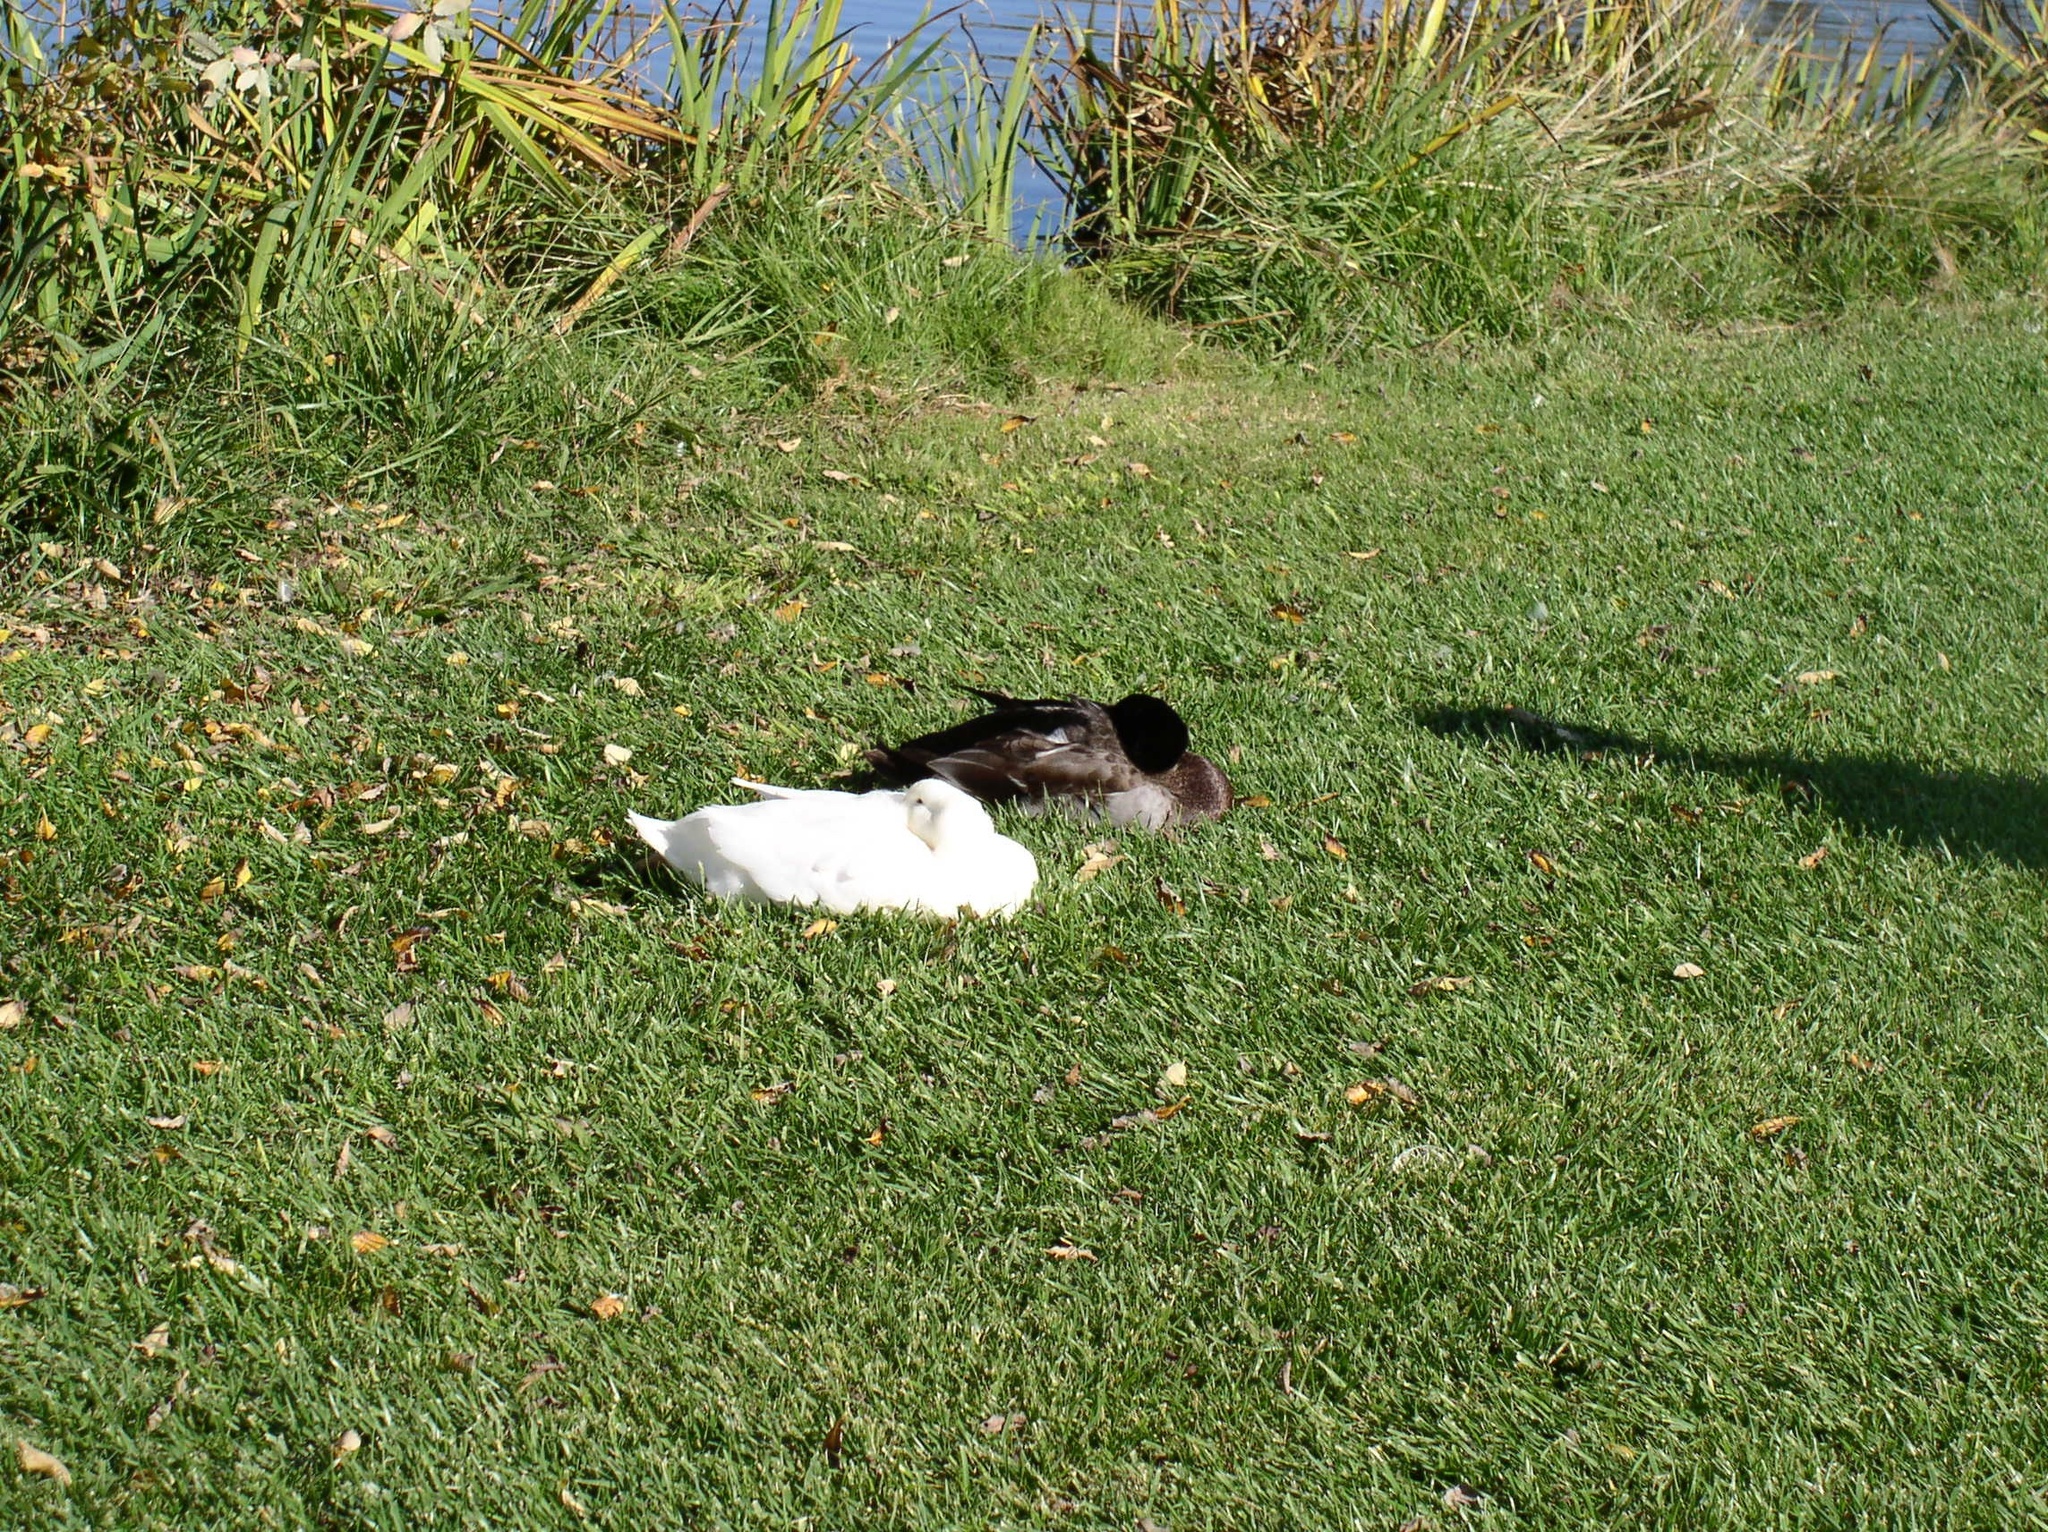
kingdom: Animalia
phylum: Chordata
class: Aves
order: Anseriformes
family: Anatidae
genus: Anas
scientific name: Anas platyrhynchos
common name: Mallard
